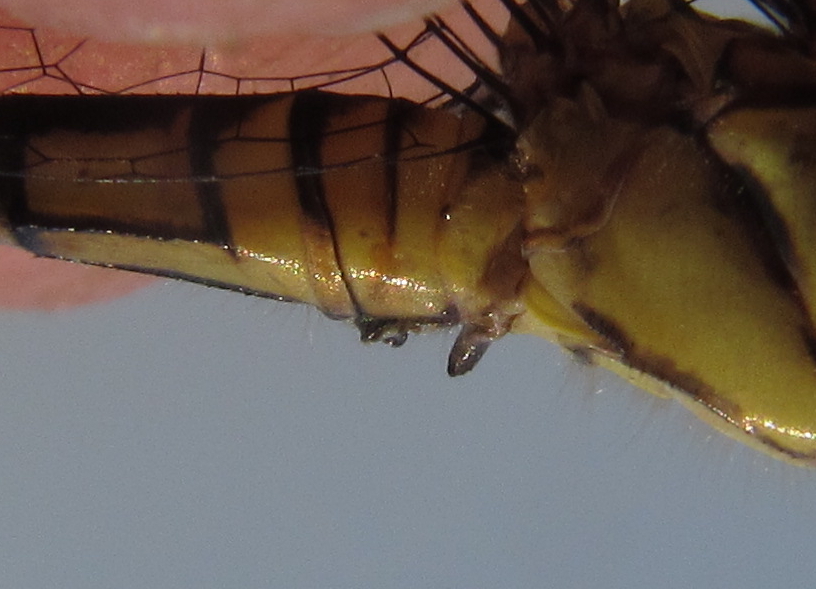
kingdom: Animalia
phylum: Arthropoda
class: Insecta
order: Odonata
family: Libellulidae
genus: Chalcostephia
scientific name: Chalcostephia flavifrons
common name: Inspector
